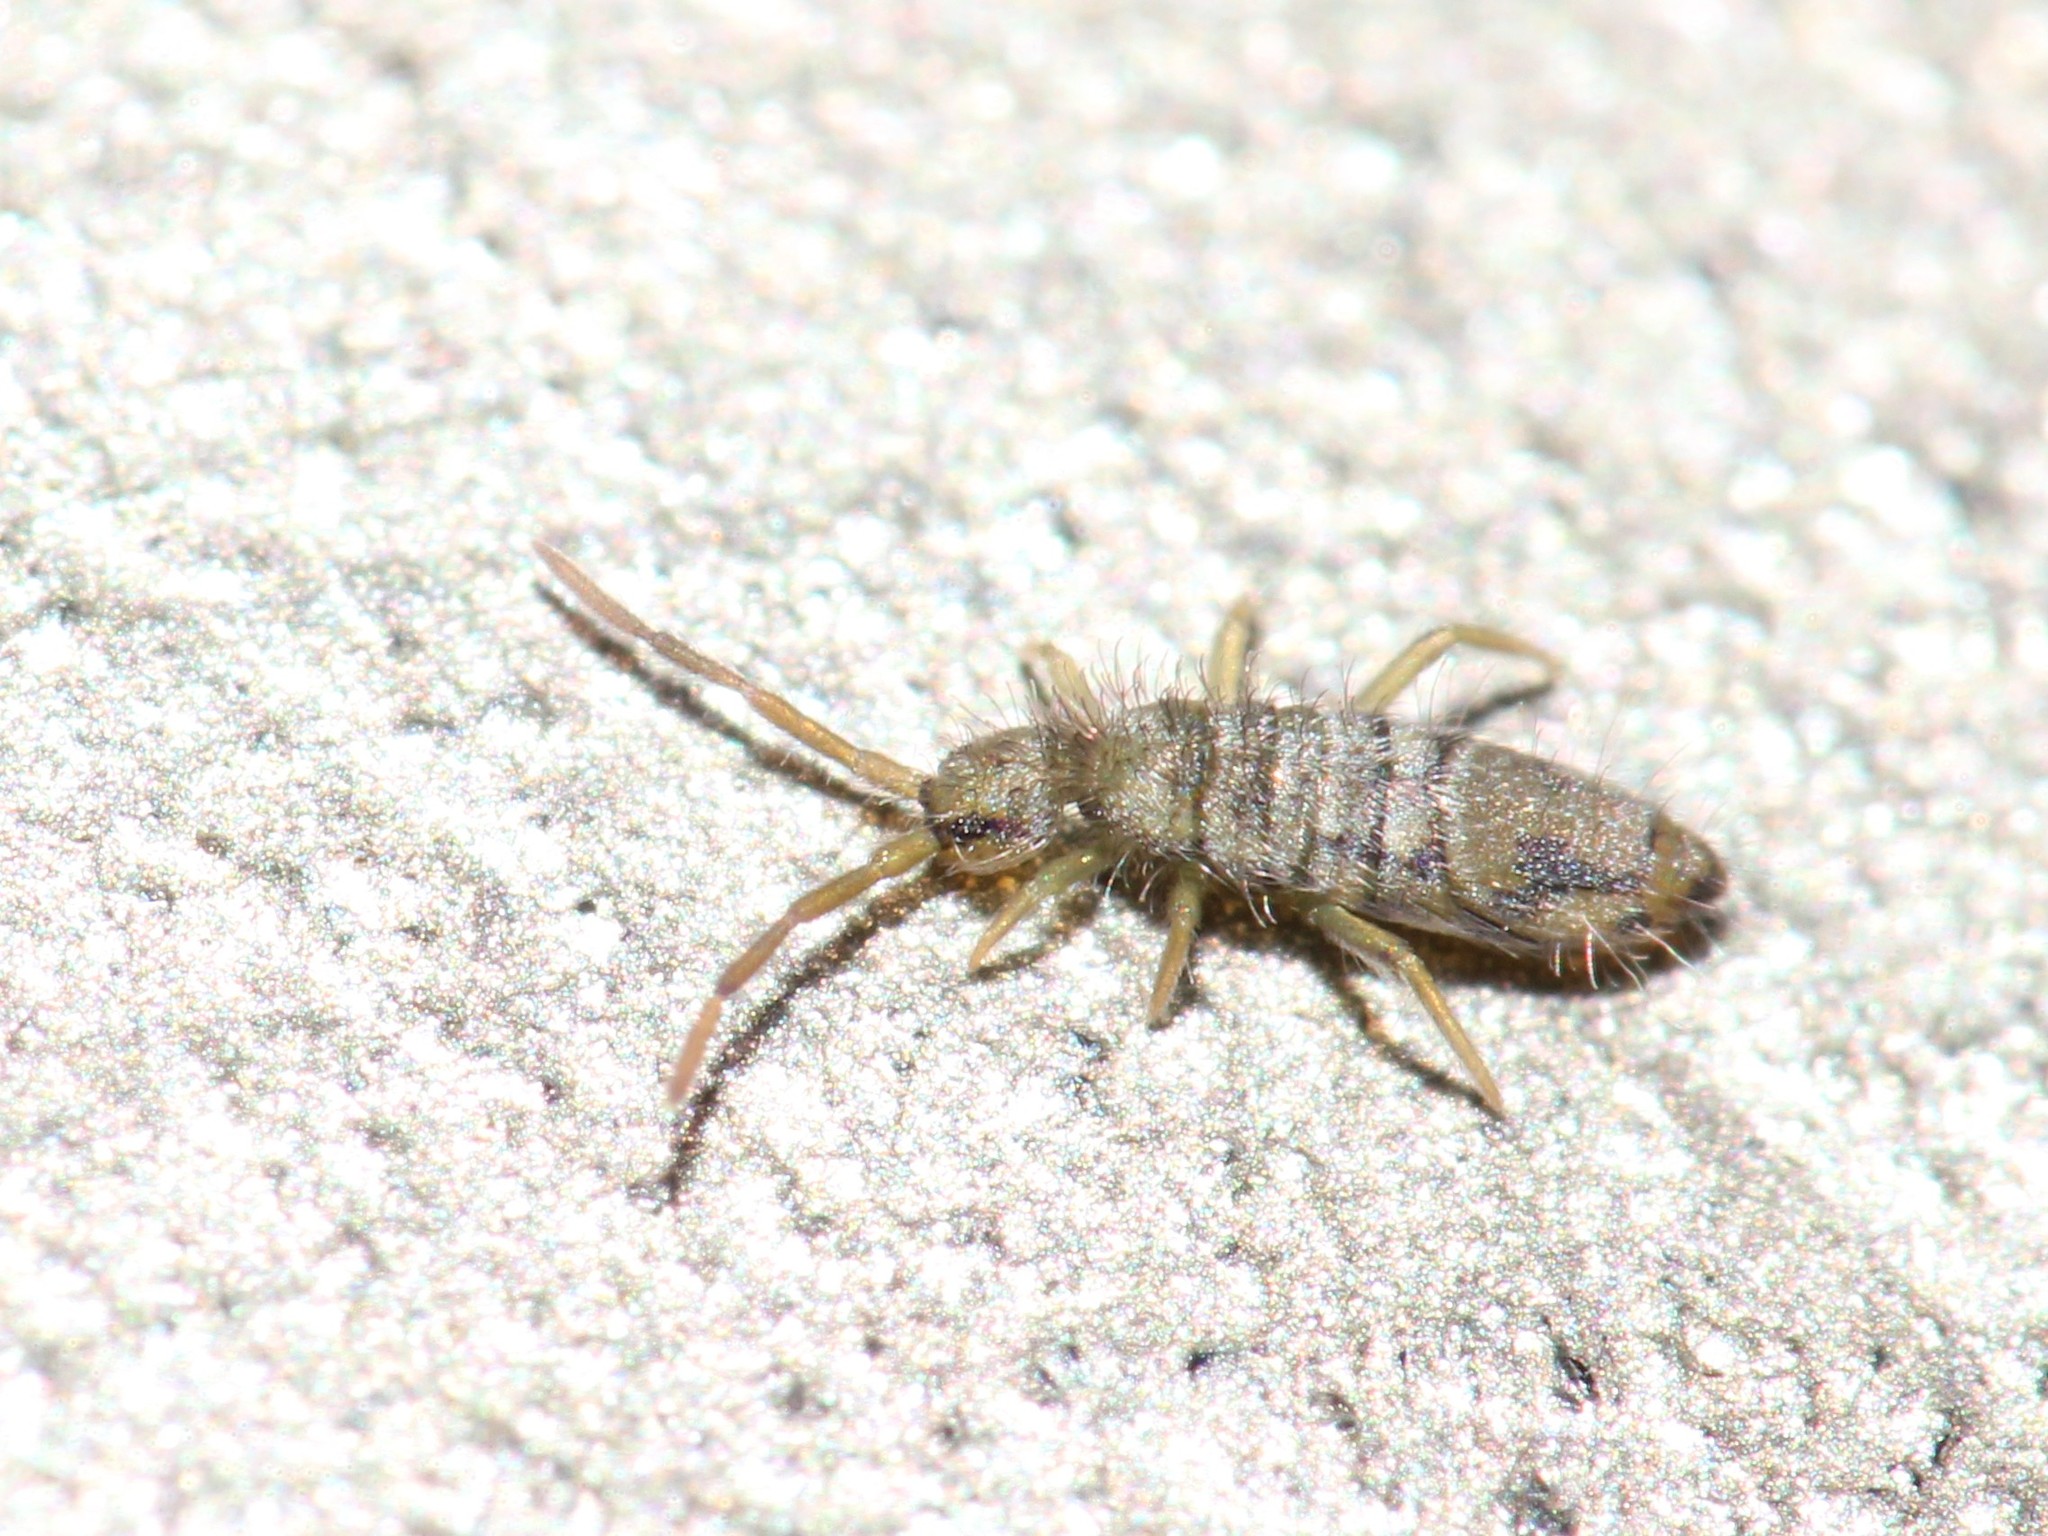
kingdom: Animalia
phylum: Arthropoda
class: Collembola
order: Entomobryomorpha
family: Entomobryidae
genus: Entomobrya
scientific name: Entomobrya nivalis
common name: Cosmopolitan springtail
